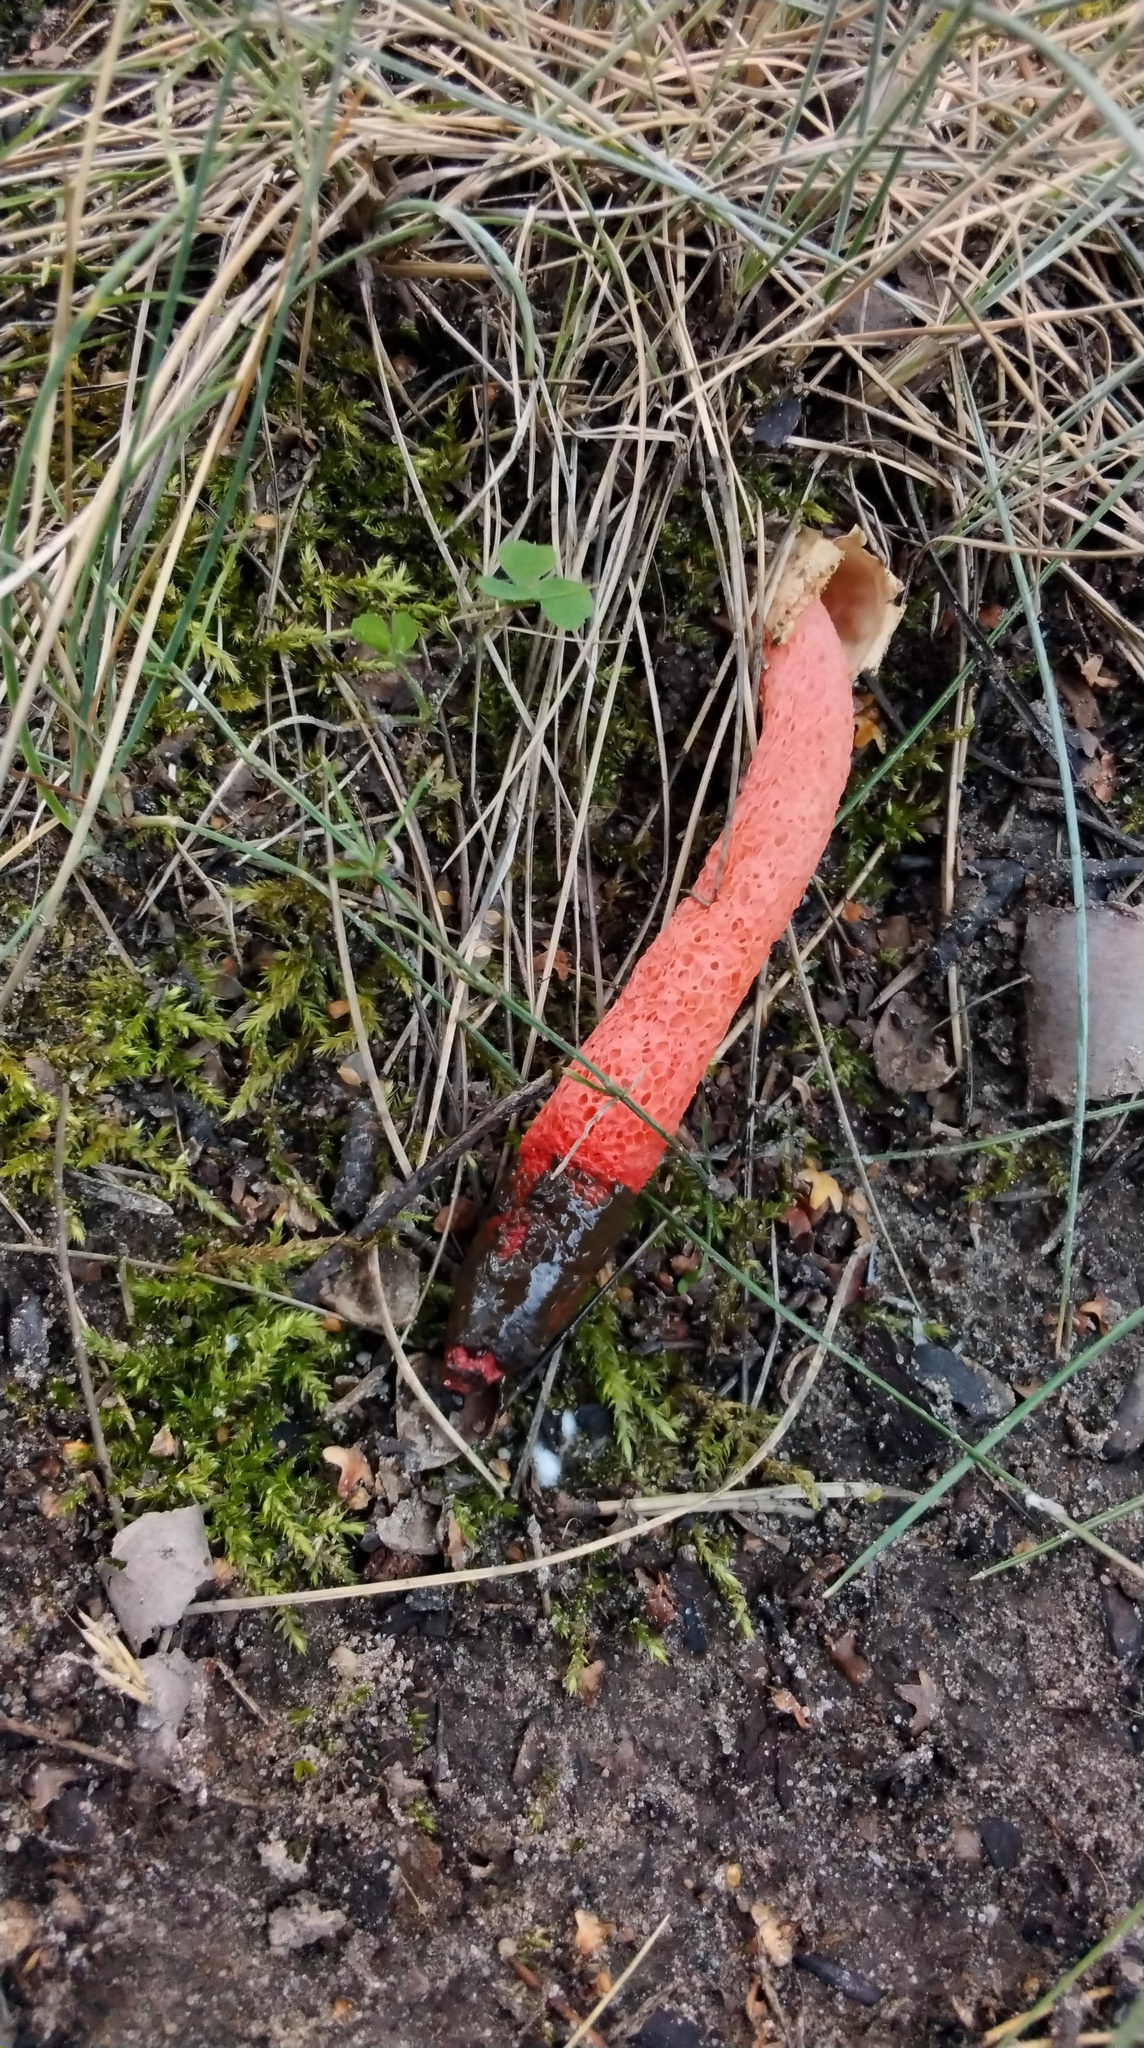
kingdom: Fungi
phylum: Basidiomycota
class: Agaricomycetes
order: Phallales
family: Phallaceae
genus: Mutinus
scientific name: Mutinus ravenelii
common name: Red stinkhorn
